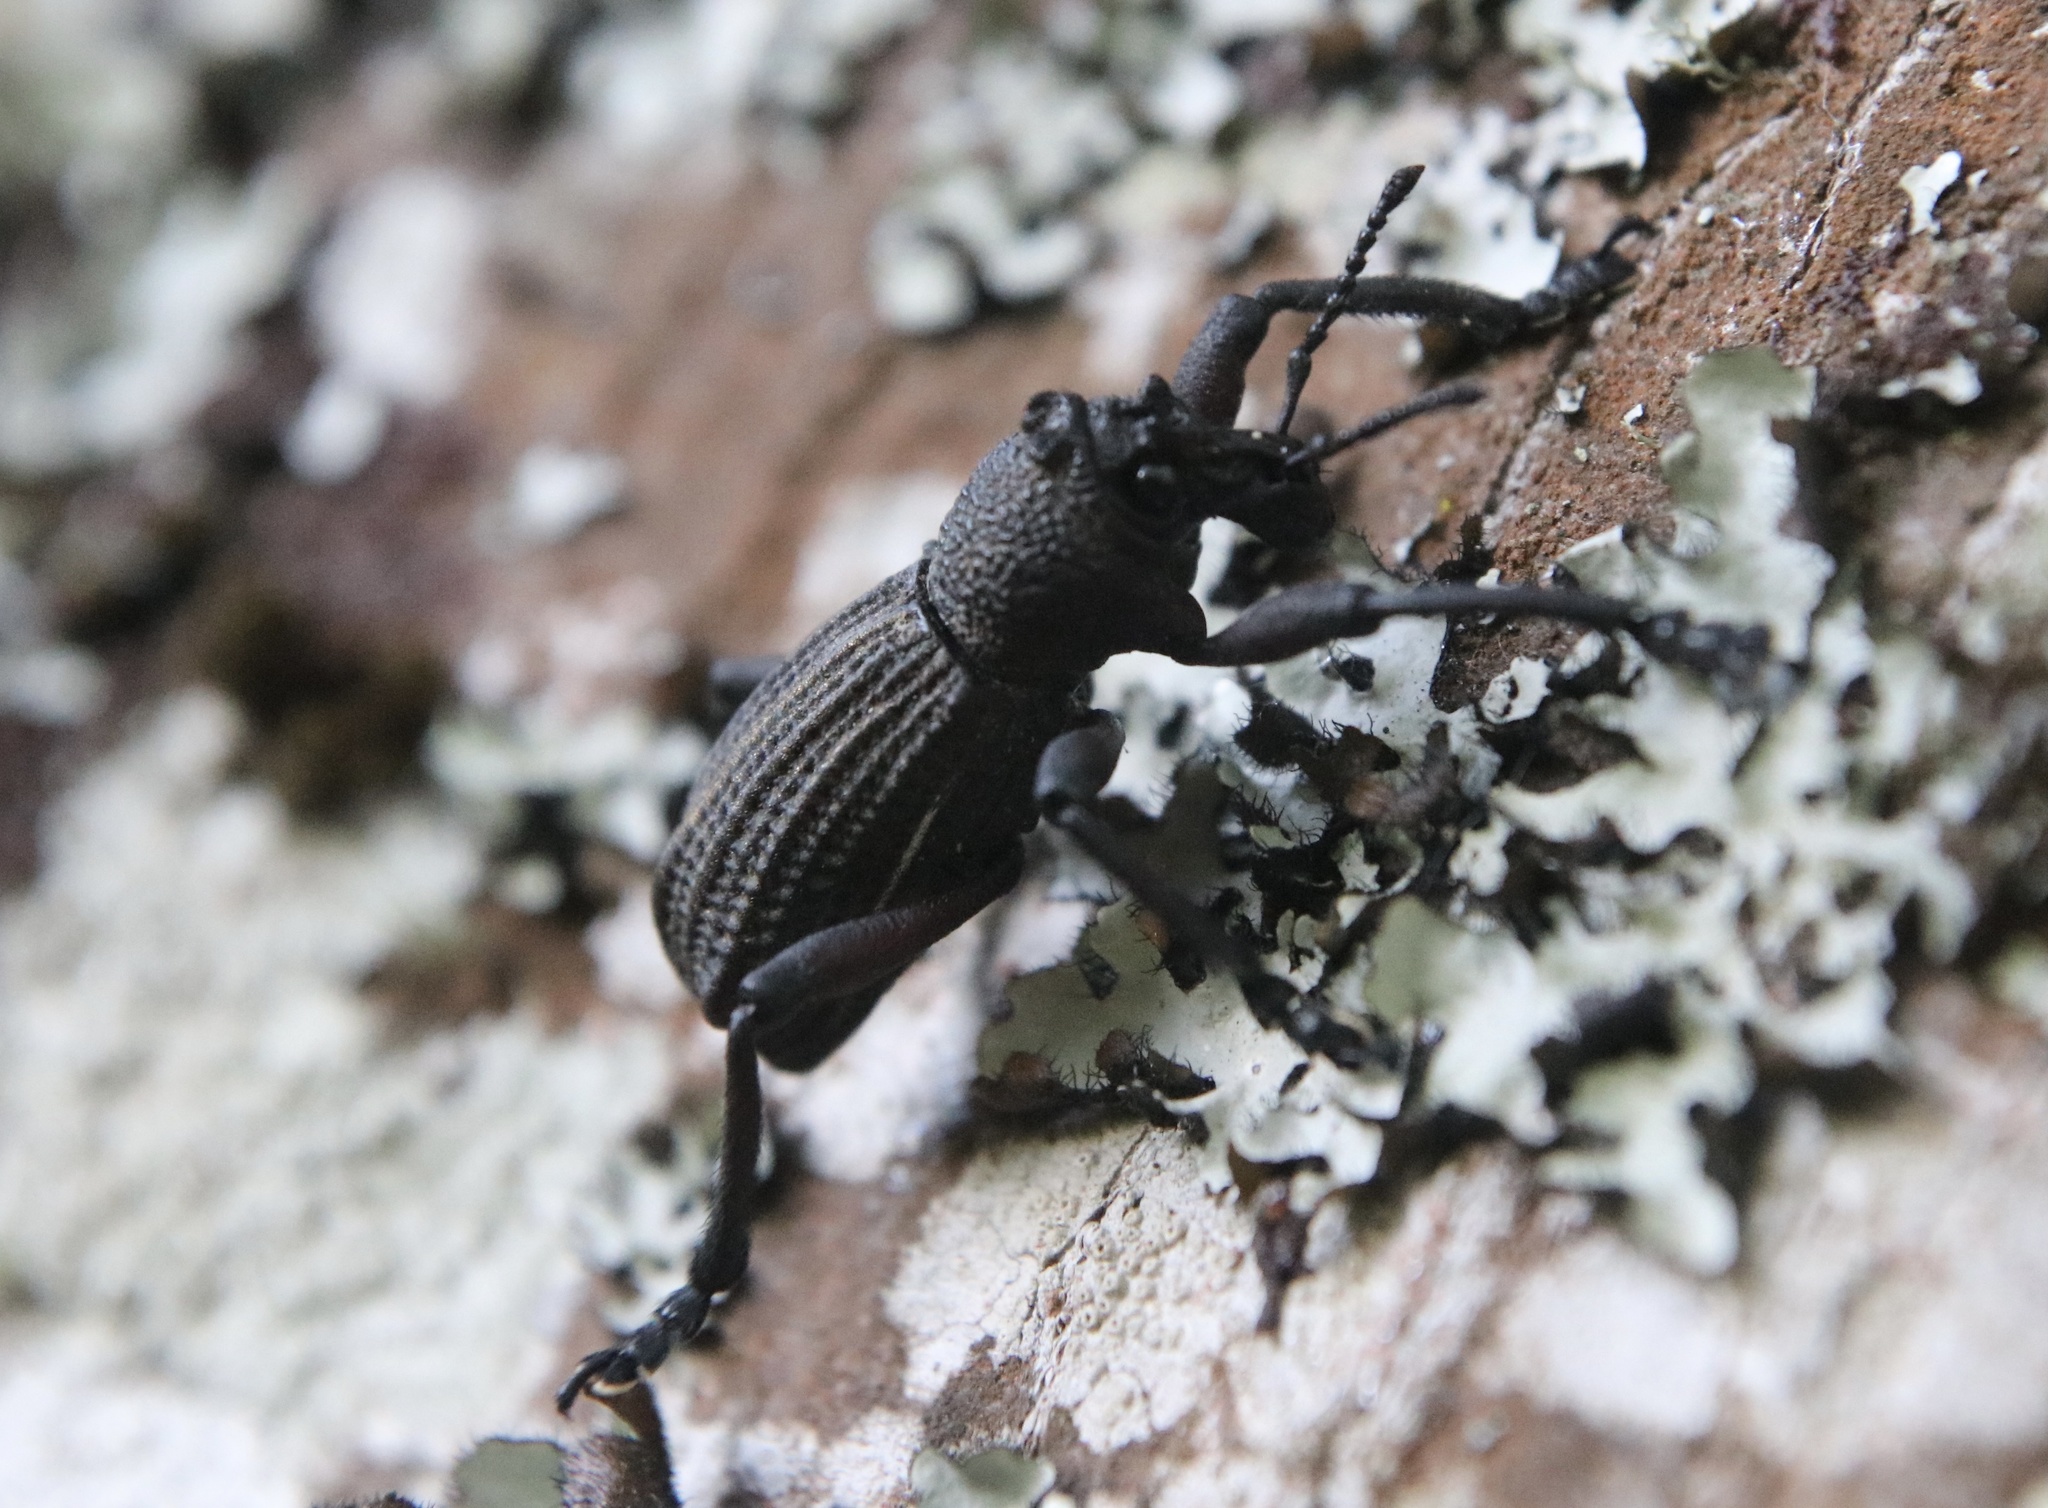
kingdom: Animalia
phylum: Arthropoda
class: Insecta
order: Coleoptera
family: Curculionidae
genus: Aegorhinus
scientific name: Aegorhinus
